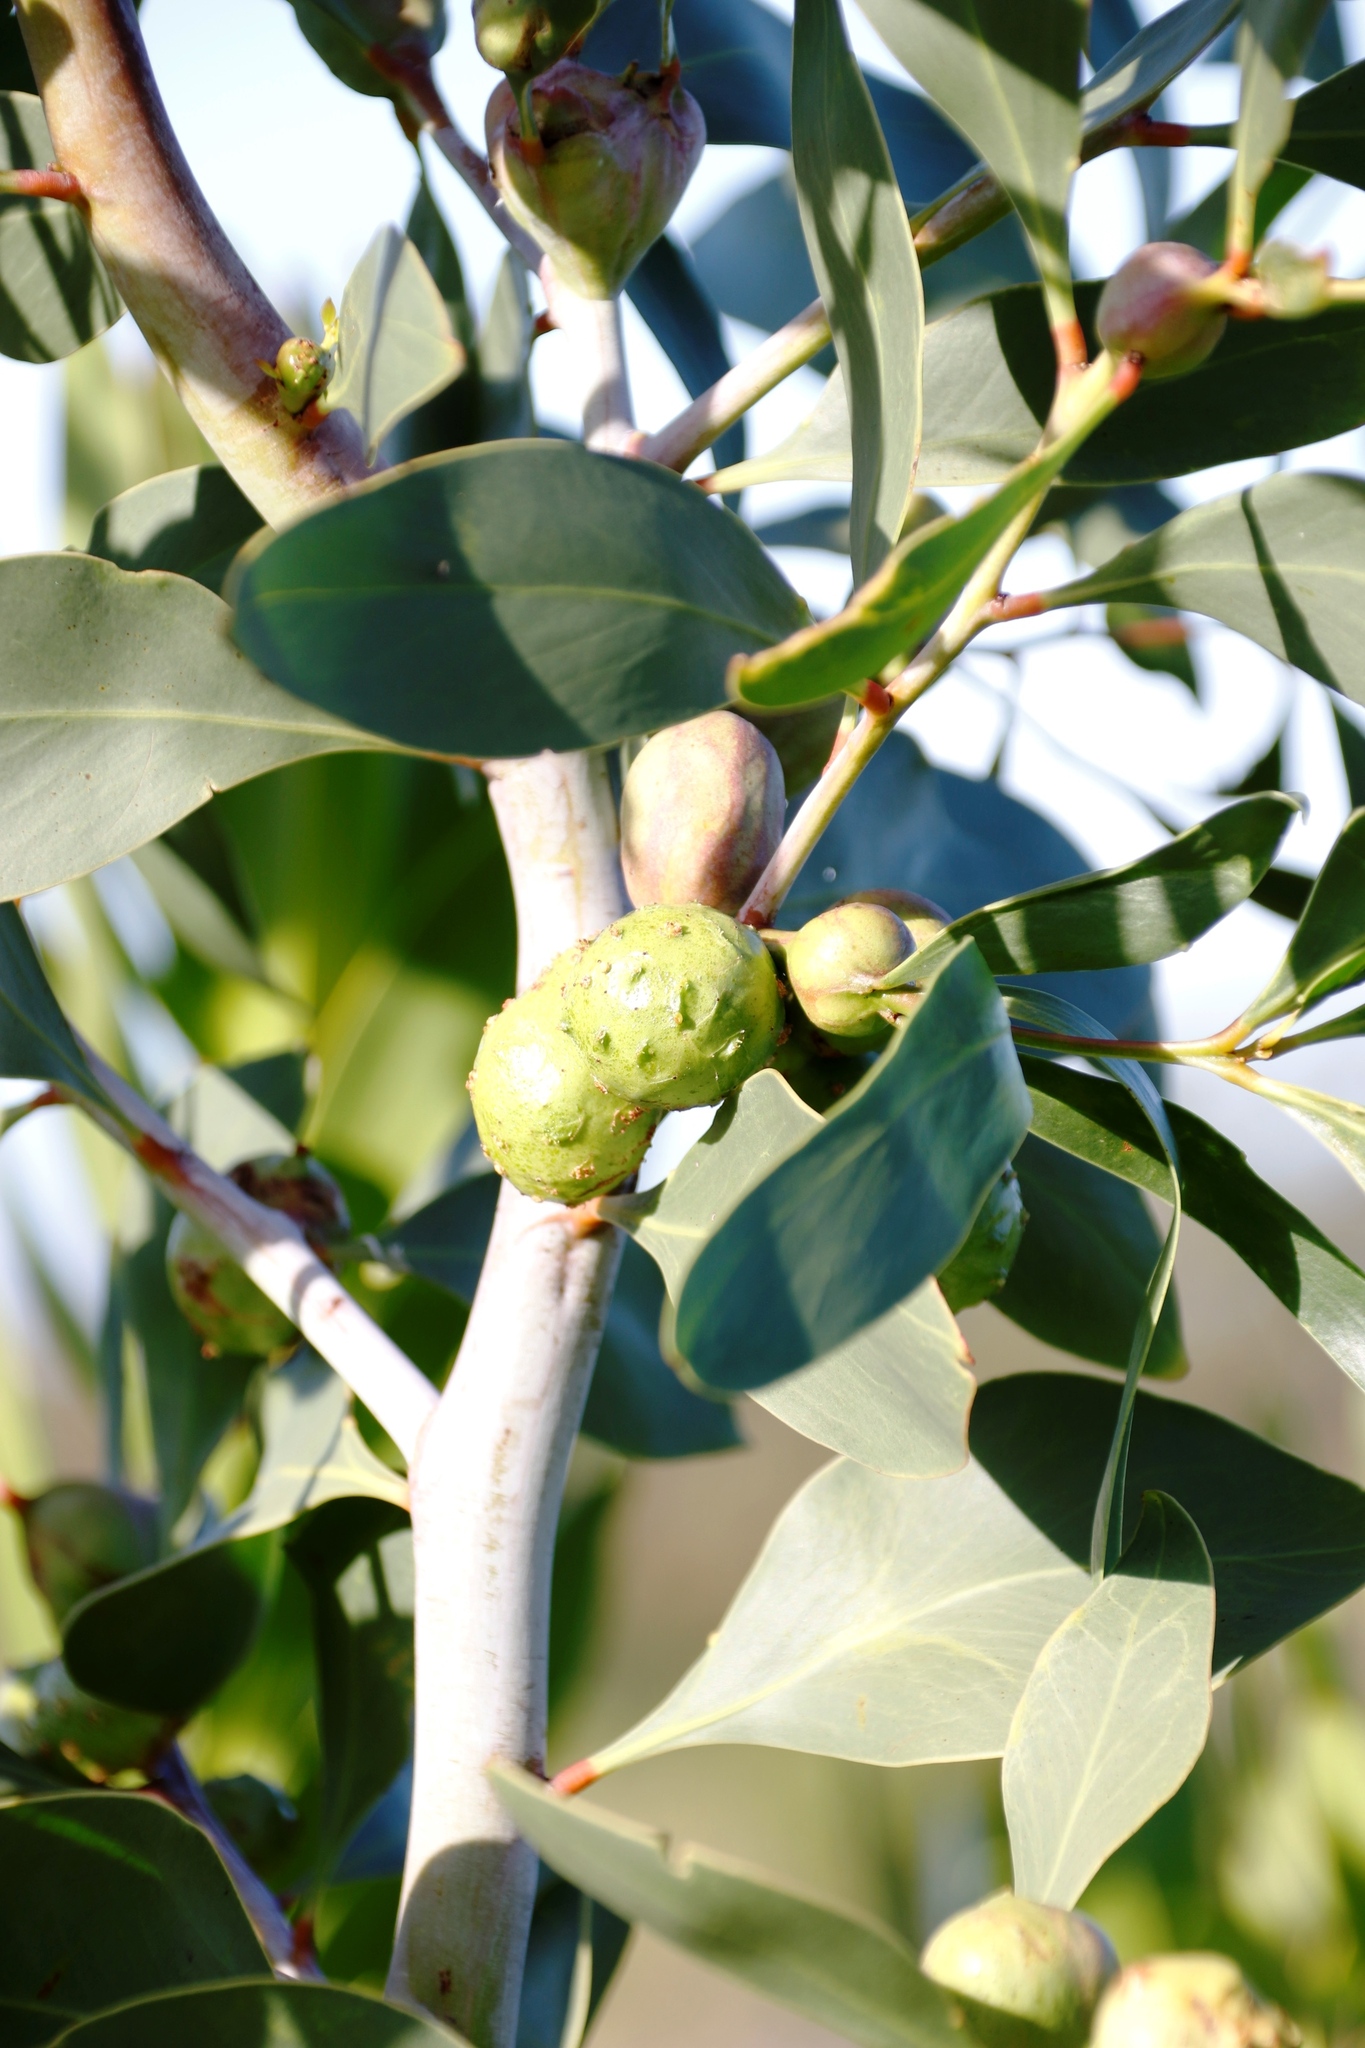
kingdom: Plantae
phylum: Tracheophyta
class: Magnoliopsida
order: Fabales
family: Fabaceae
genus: Acacia
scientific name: Acacia pycnantha
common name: Golden wattle
